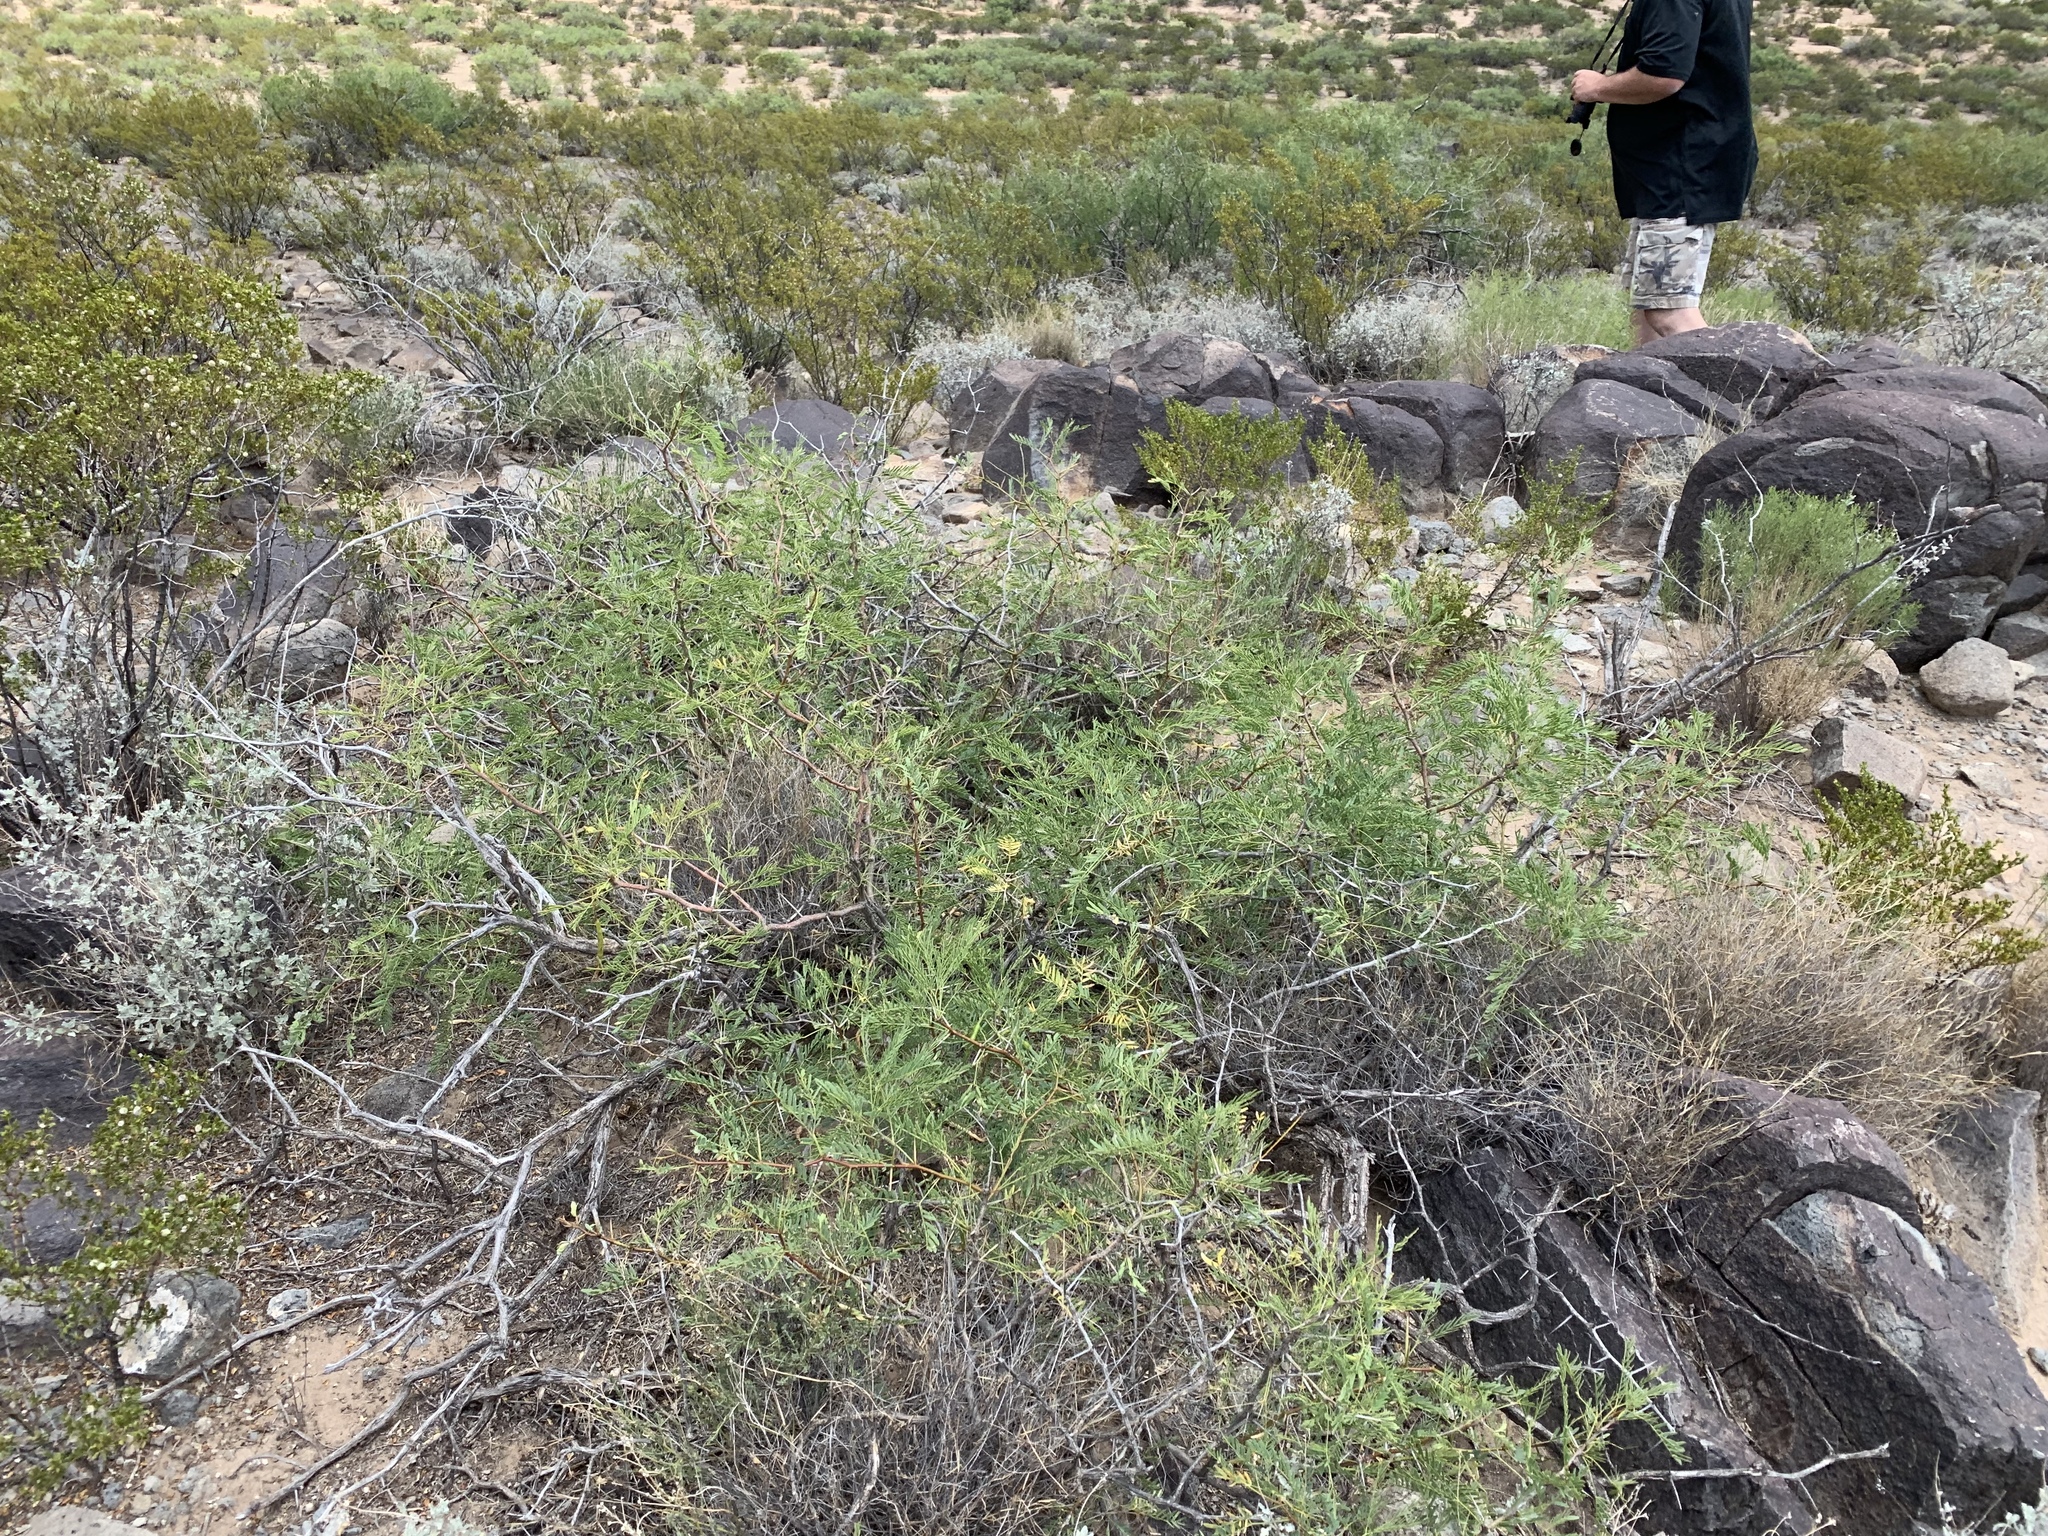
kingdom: Plantae
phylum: Tracheophyta
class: Magnoliopsida
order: Fabales
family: Fabaceae
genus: Prosopis
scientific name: Prosopis glandulosa
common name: Honey mesquite
